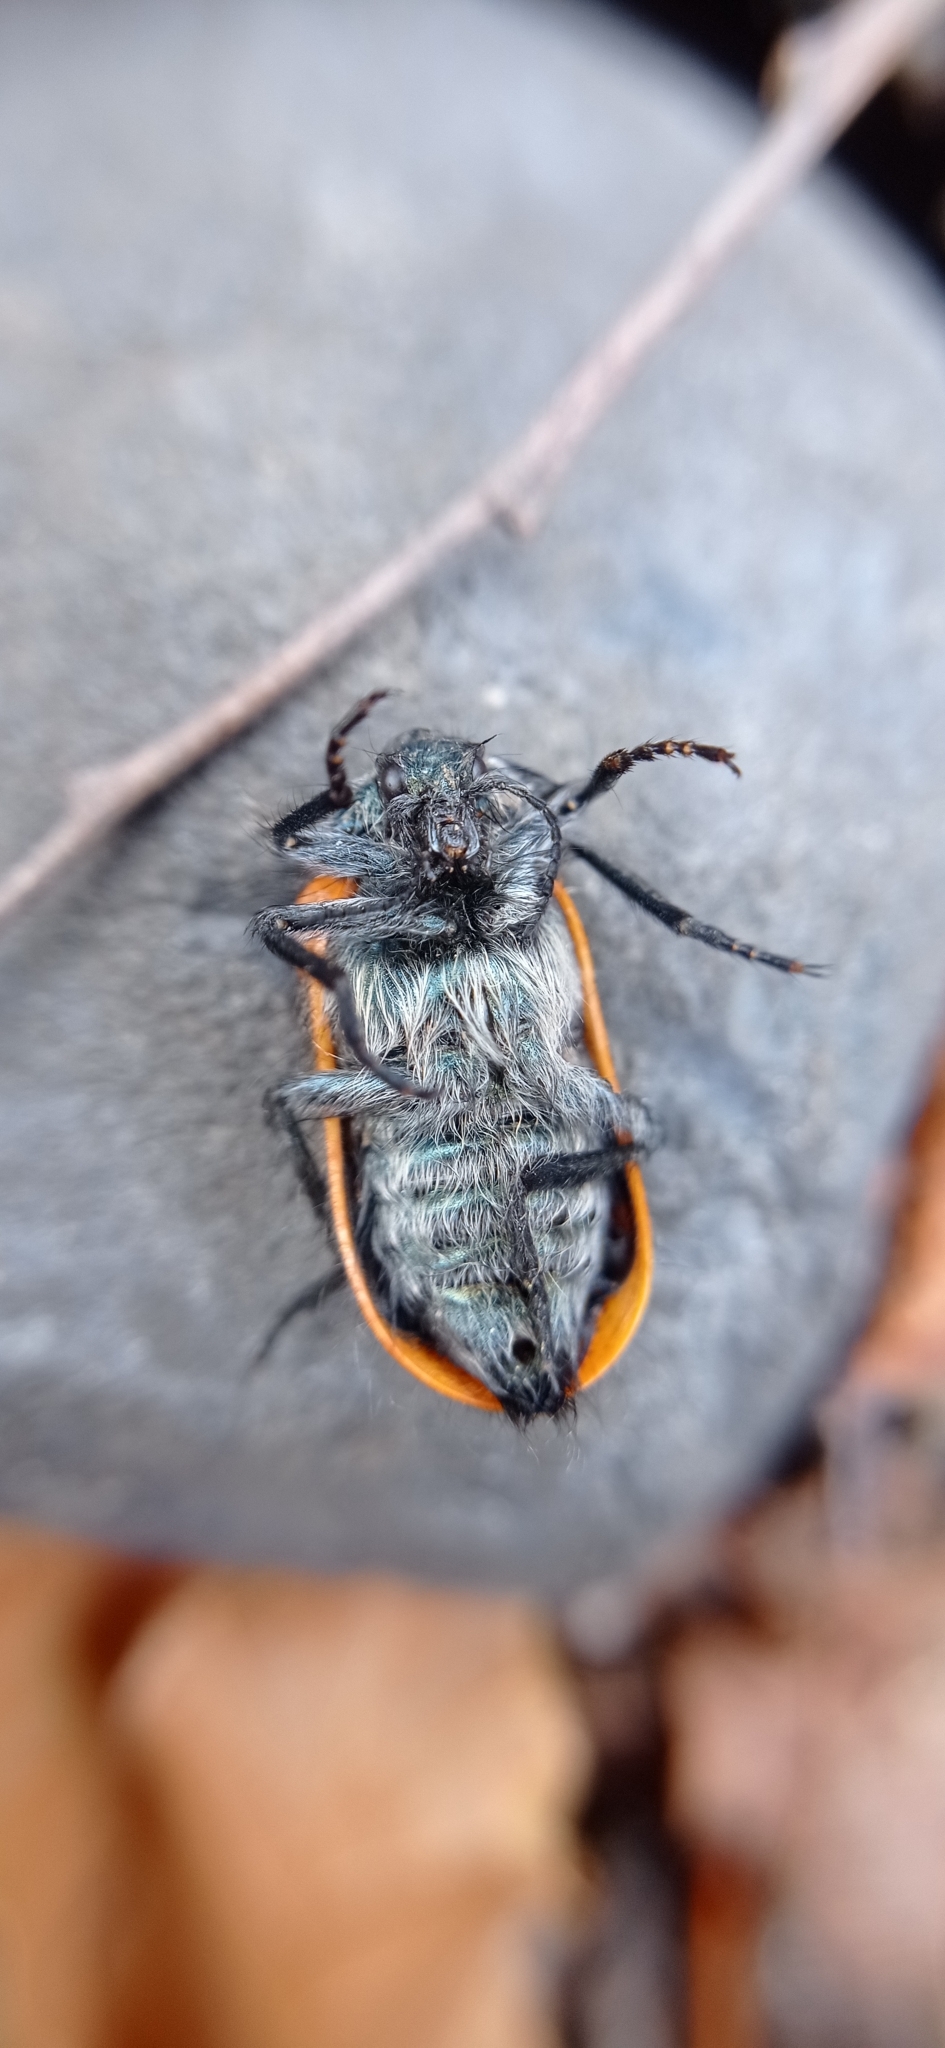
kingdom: Animalia
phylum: Arthropoda
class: Insecta
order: Coleoptera
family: Melyridae
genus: Astylus
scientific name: Astylus
